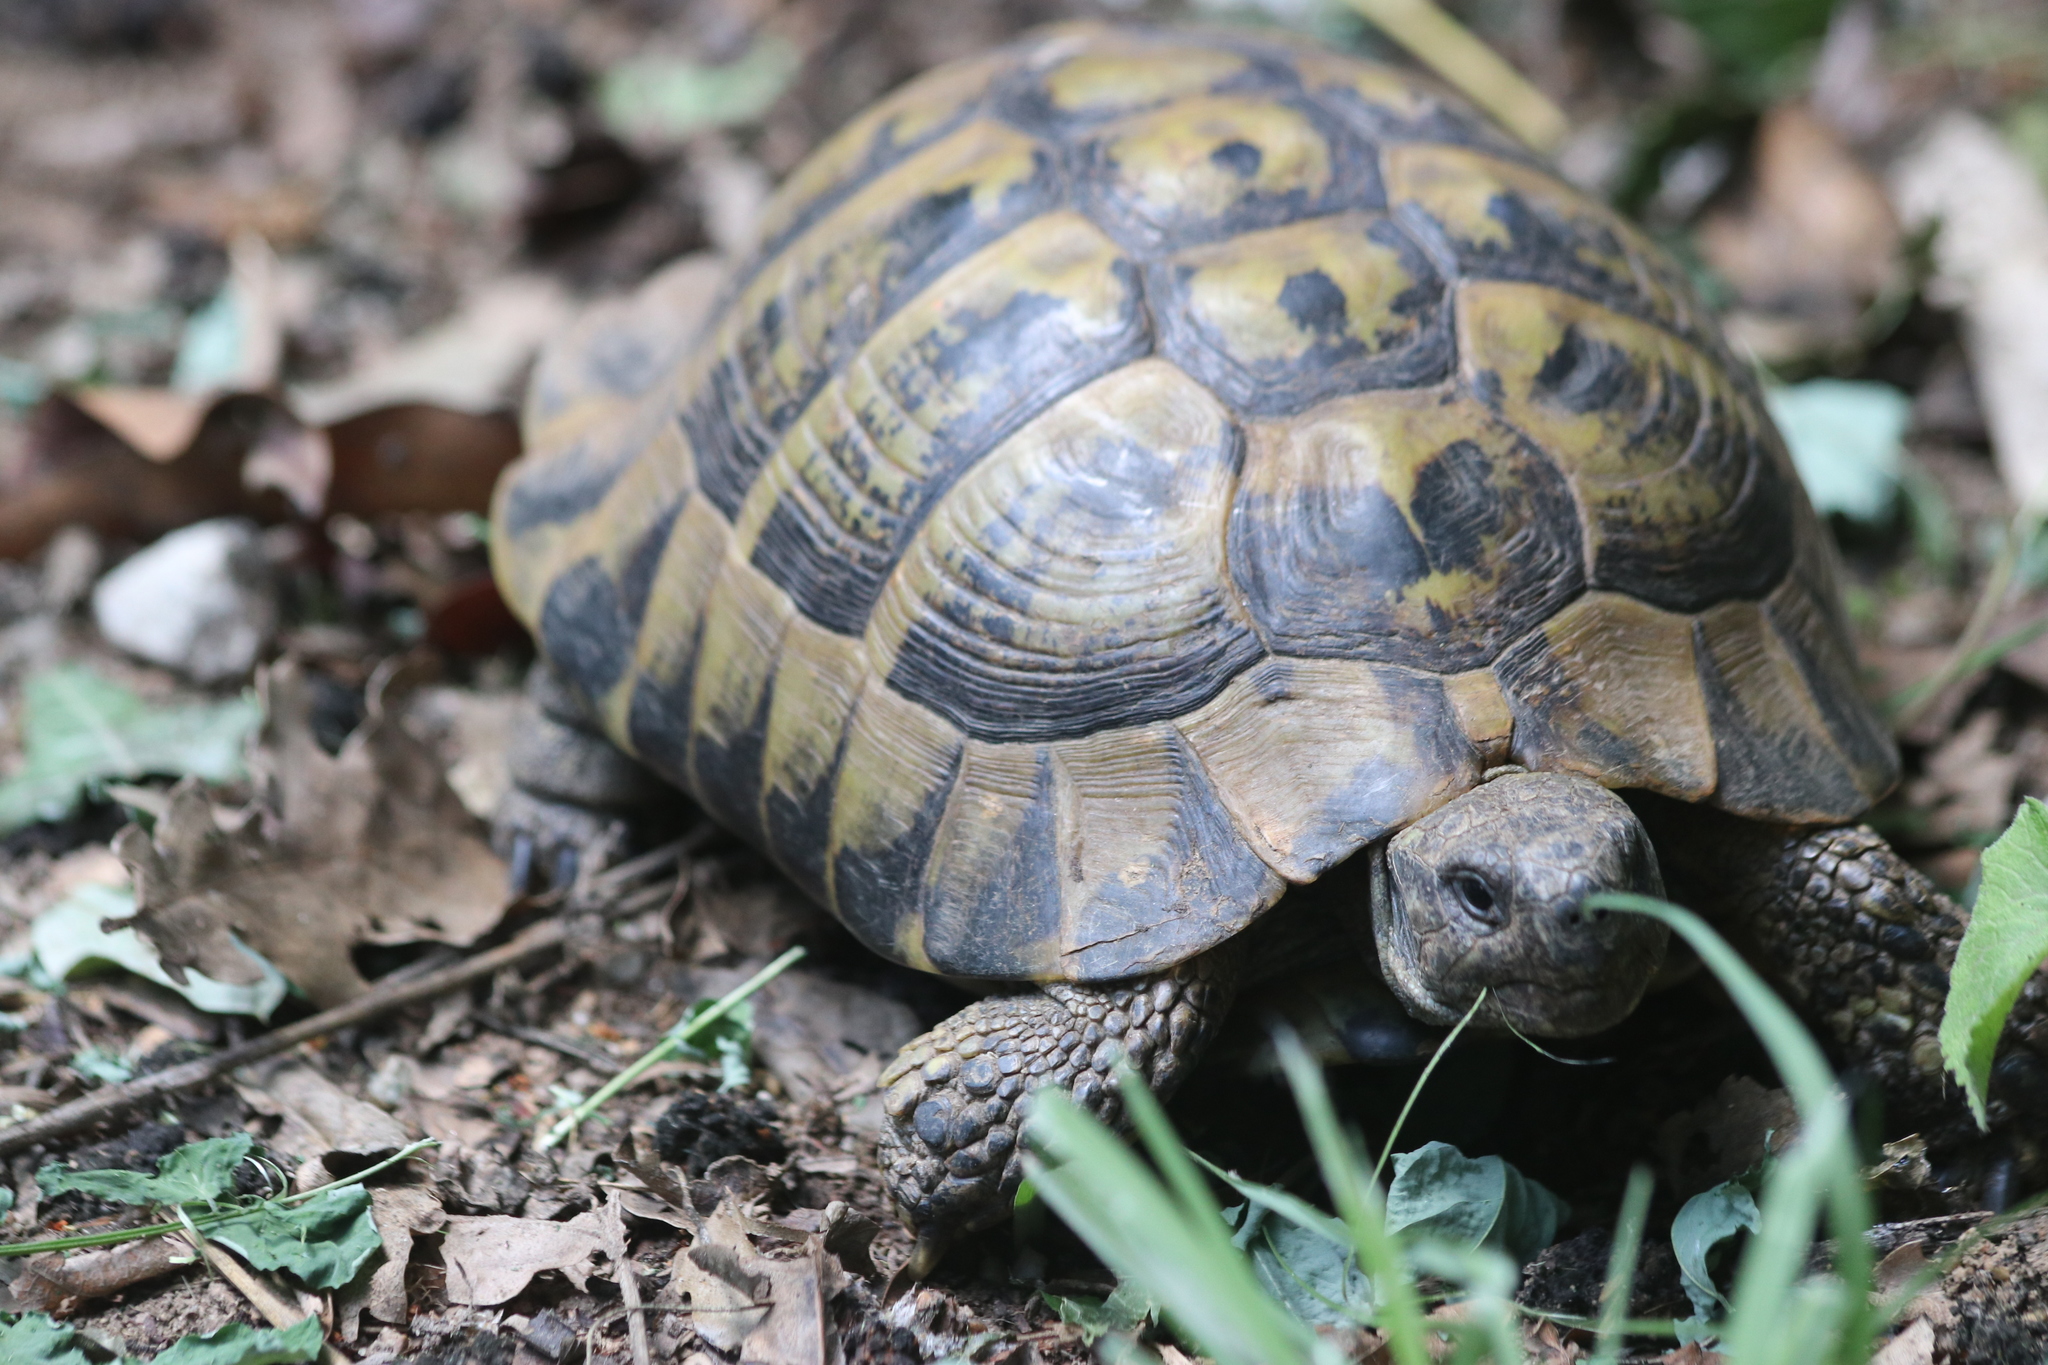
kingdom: Animalia
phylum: Chordata
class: Testudines
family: Testudinidae
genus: Testudo
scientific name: Testudo hermanni
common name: Hermann's tortoise
